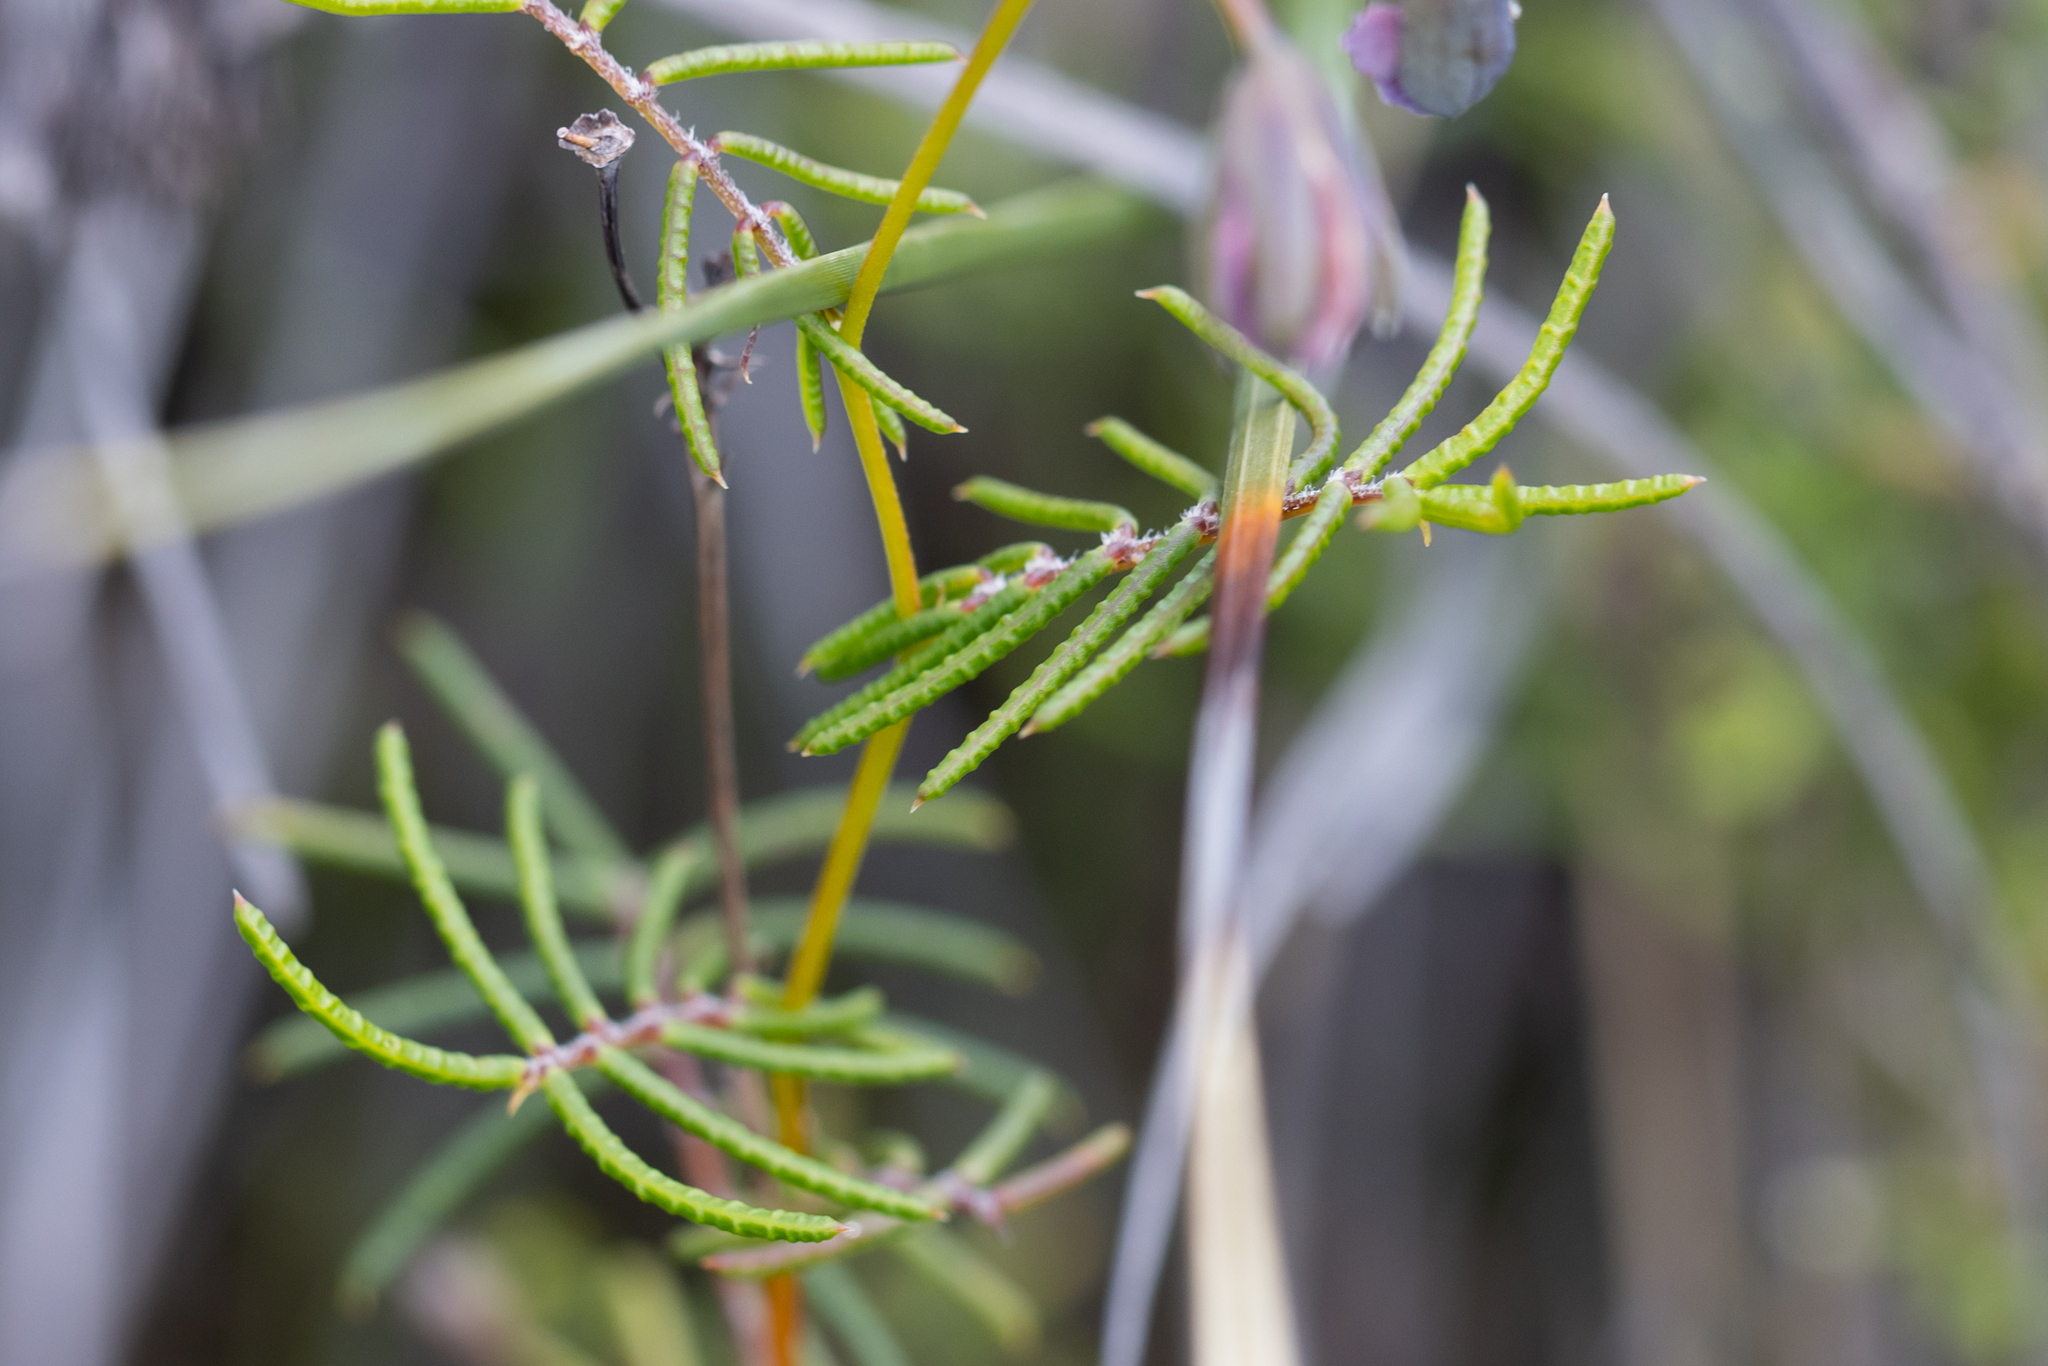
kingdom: Plantae
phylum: Tracheophyta
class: Magnoliopsida
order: Fabales
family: Fabaceae
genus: Gompholobium
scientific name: Gompholobium venustum
